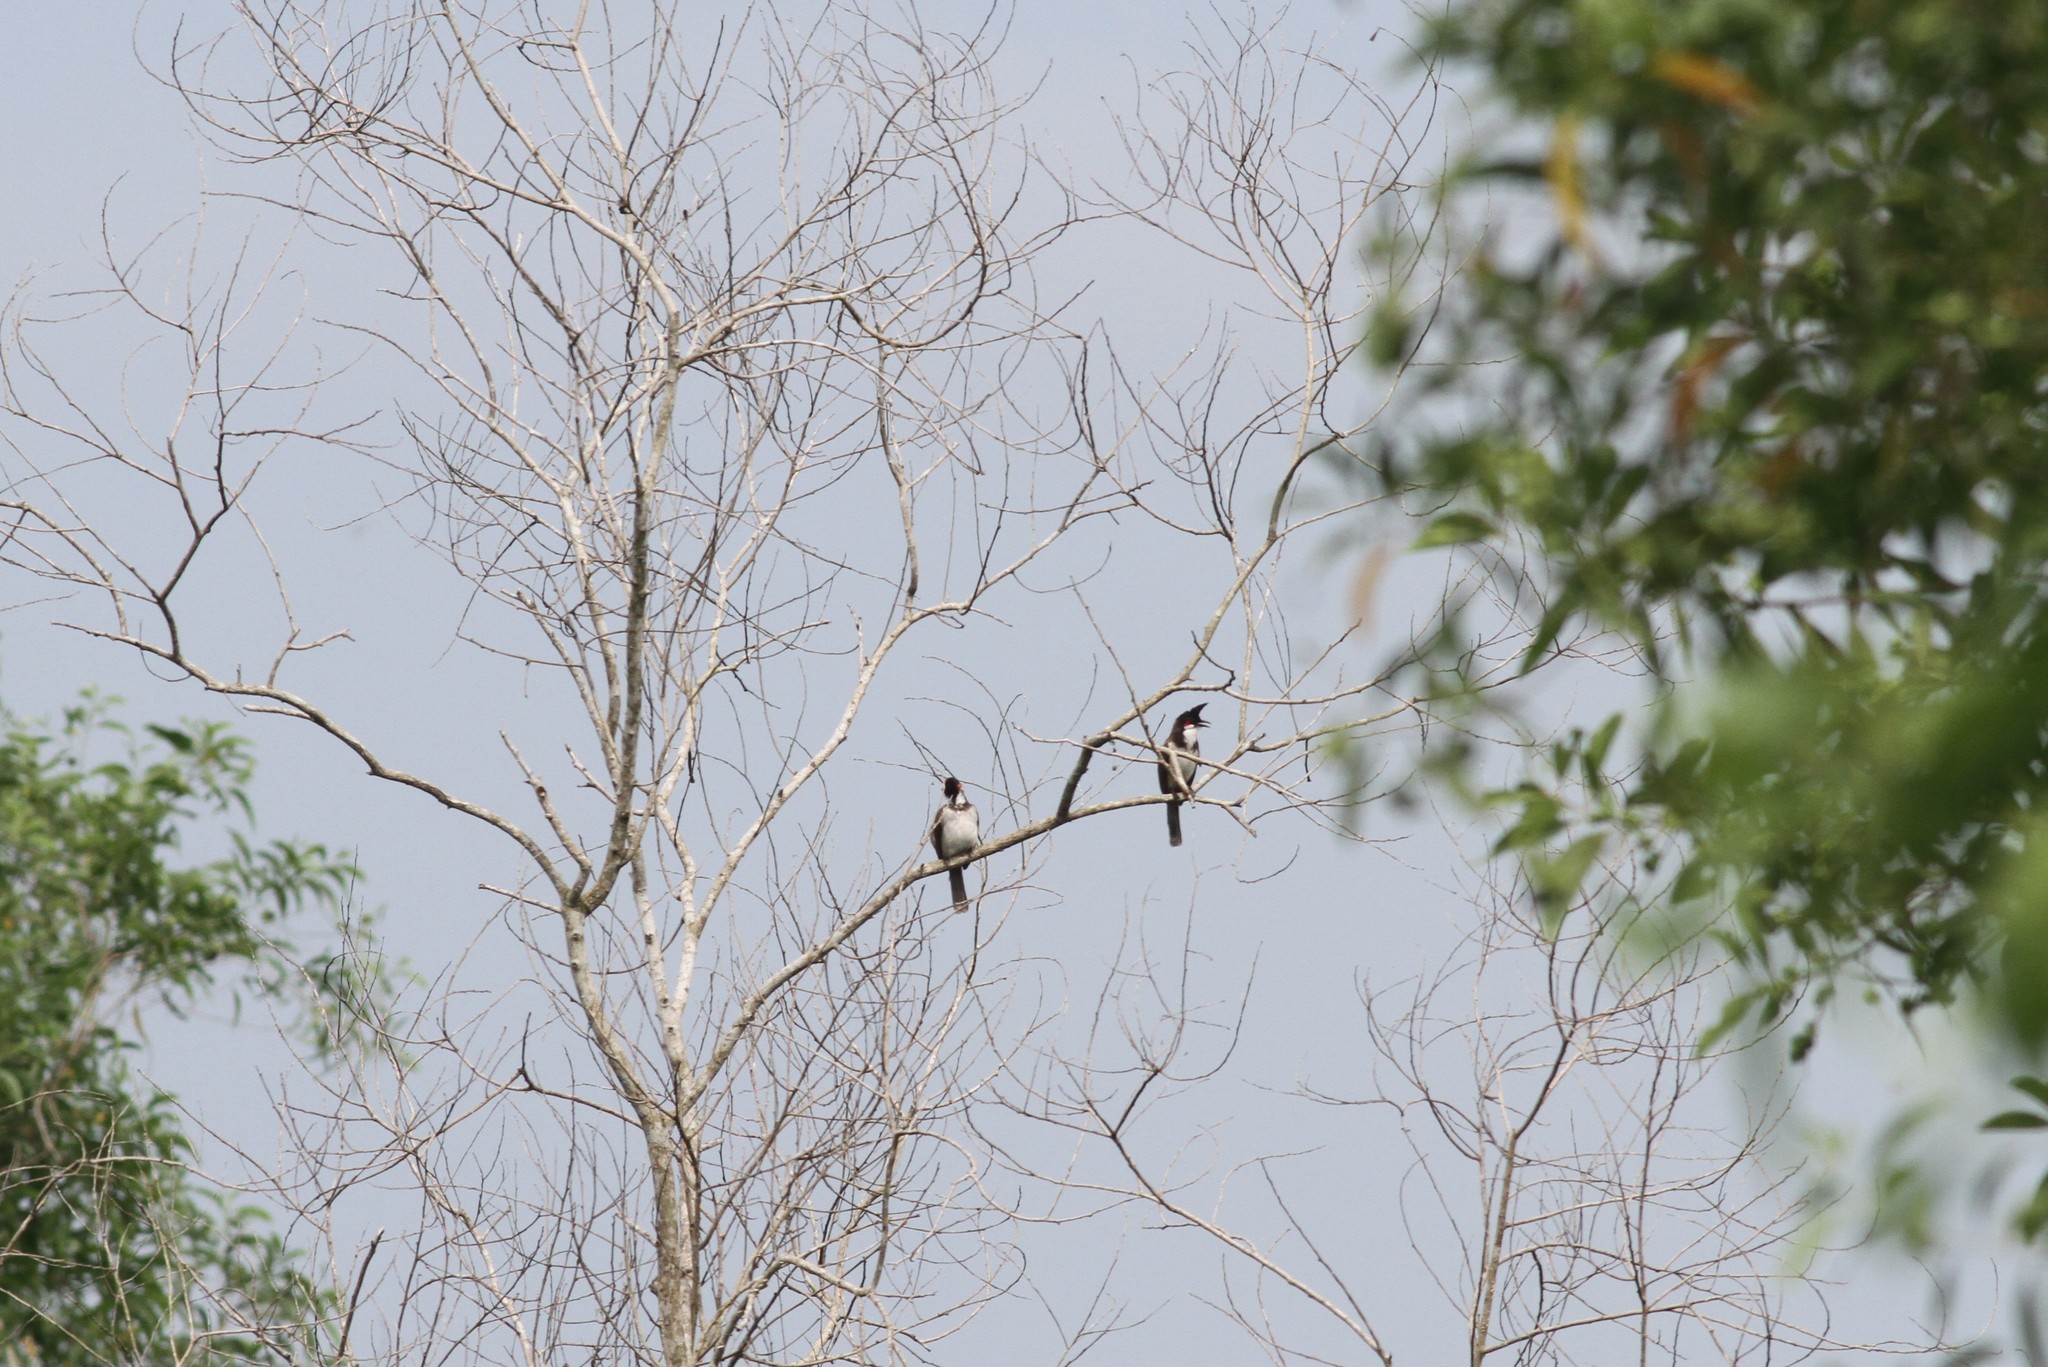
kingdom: Animalia
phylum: Chordata
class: Aves
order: Passeriformes
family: Pycnonotidae
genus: Pycnonotus
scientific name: Pycnonotus jocosus
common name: Red-whiskered bulbul
